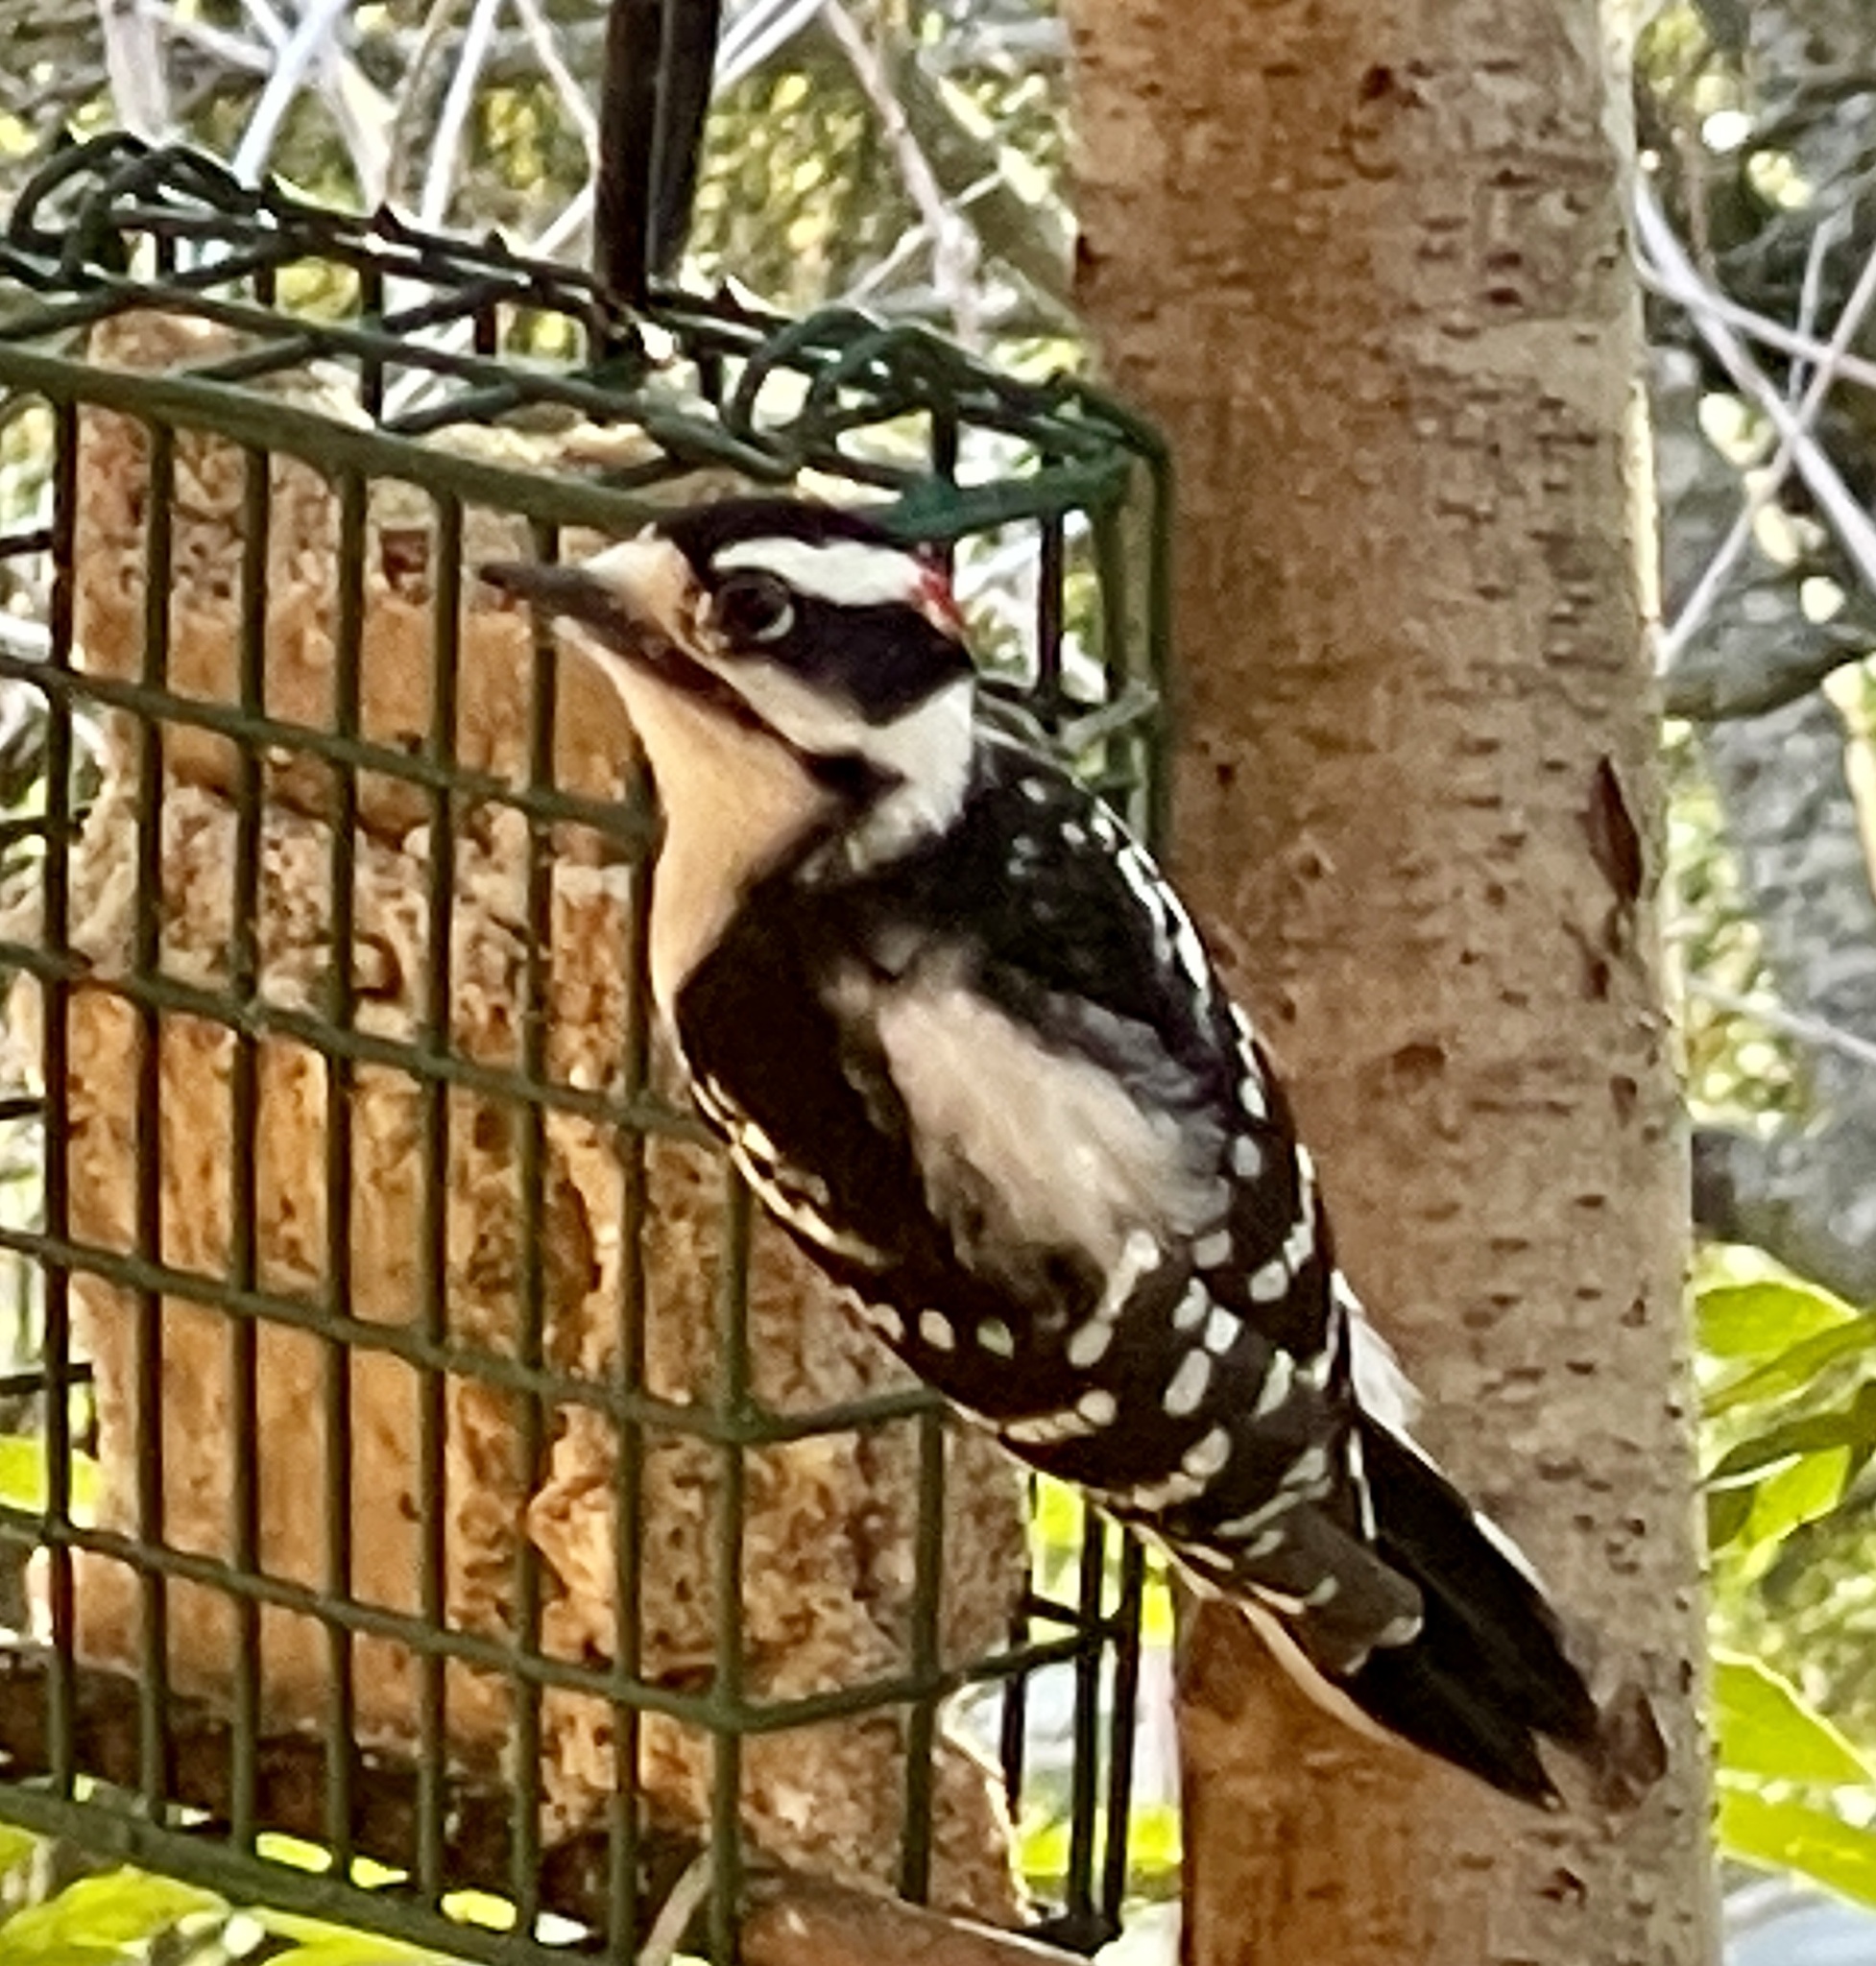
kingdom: Animalia
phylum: Chordata
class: Aves
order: Piciformes
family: Picidae
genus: Dryobates
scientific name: Dryobates pubescens
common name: Downy woodpecker
